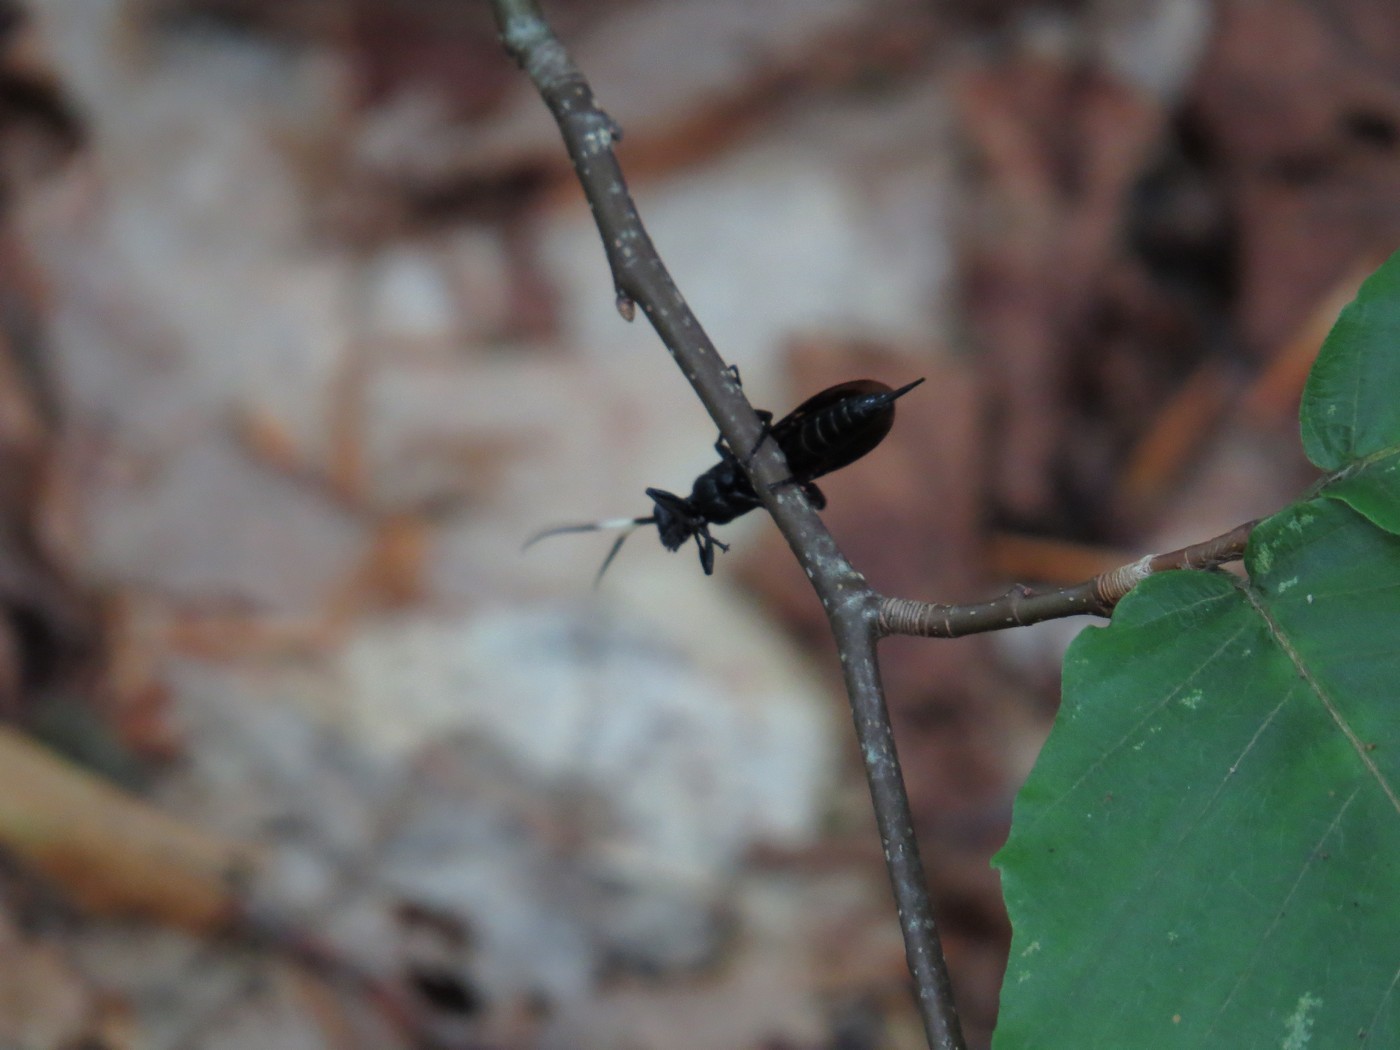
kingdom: Animalia
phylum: Arthropoda
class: Insecta
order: Hymenoptera
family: Ichneumonidae
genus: Megaplectes
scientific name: Megaplectes monticola
